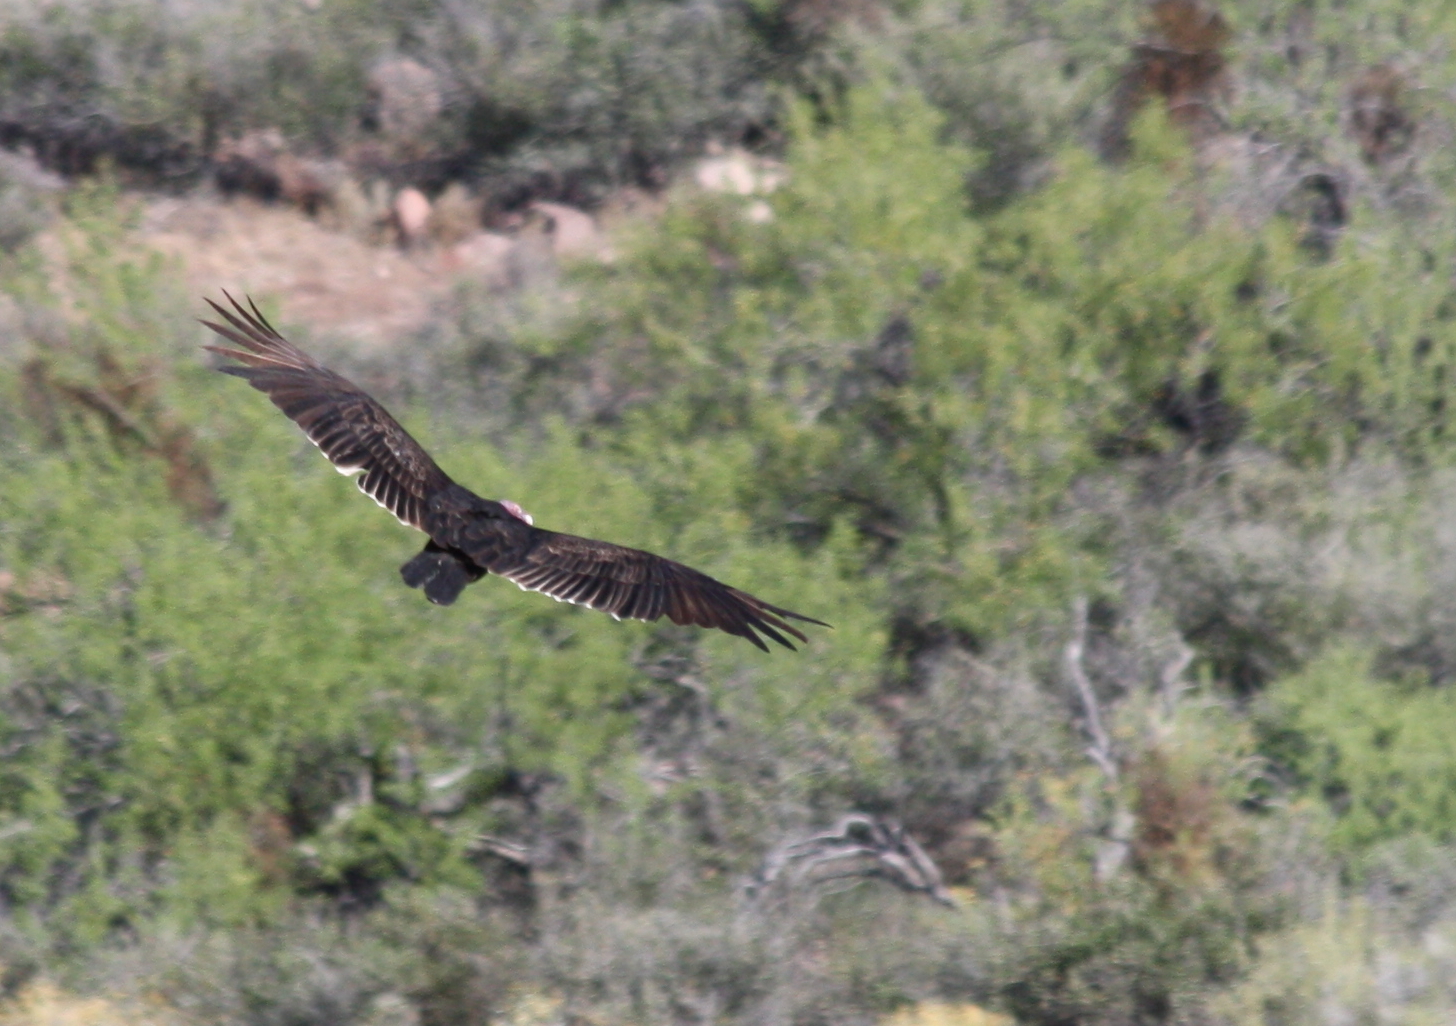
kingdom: Animalia
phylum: Chordata
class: Aves
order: Accipitriformes
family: Cathartidae
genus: Cathartes
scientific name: Cathartes aura
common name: Turkey vulture
